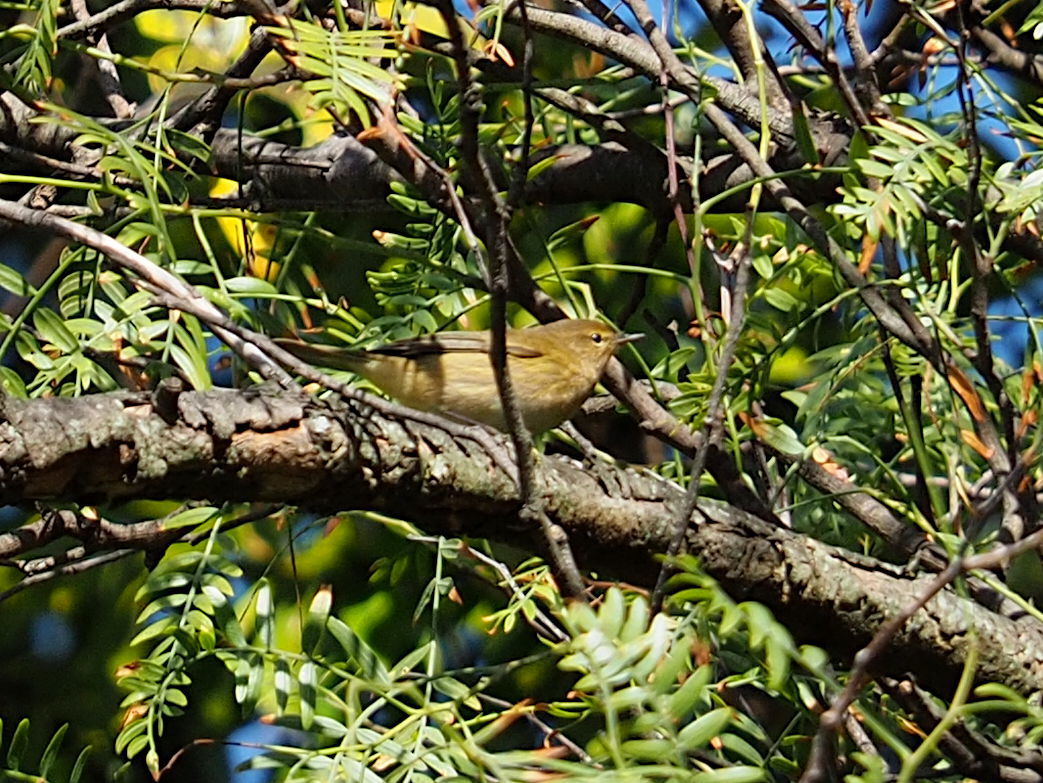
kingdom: Animalia
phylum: Chordata
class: Aves
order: Passeriformes
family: Phylloscopidae
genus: Phylloscopus
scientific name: Phylloscopus collybita
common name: Common chiffchaff
